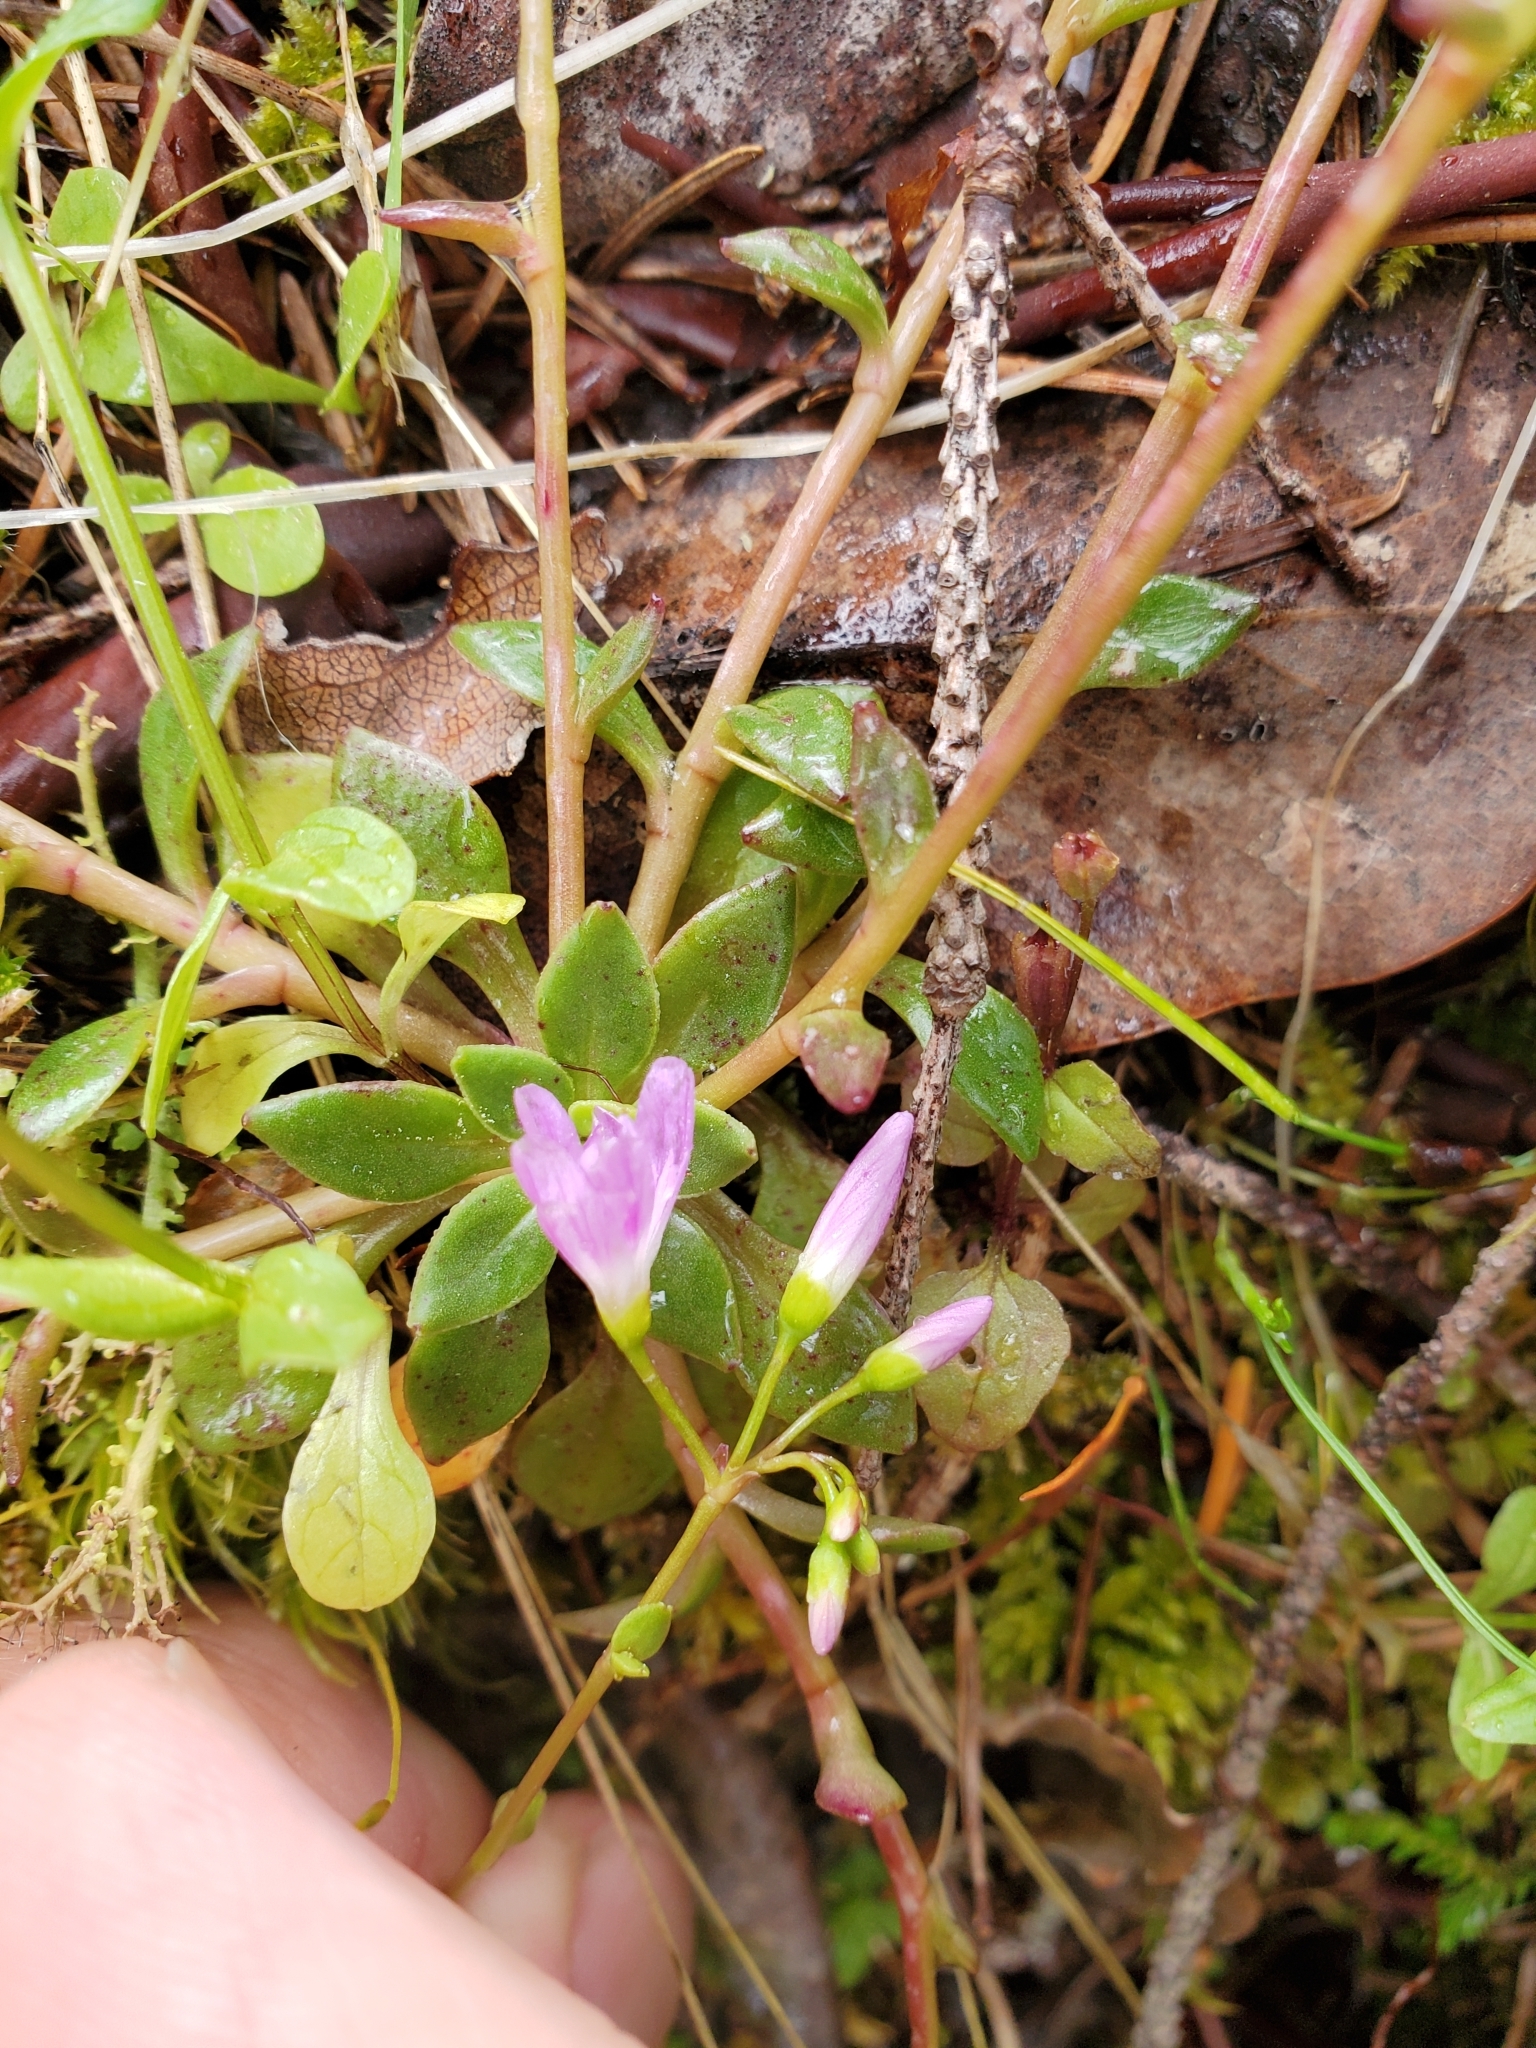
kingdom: Plantae
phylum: Tracheophyta
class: Magnoliopsida
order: Caryophyllales
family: Montiaceae
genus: Montia
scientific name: Montia parvifolia
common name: Small-leaved blinks
